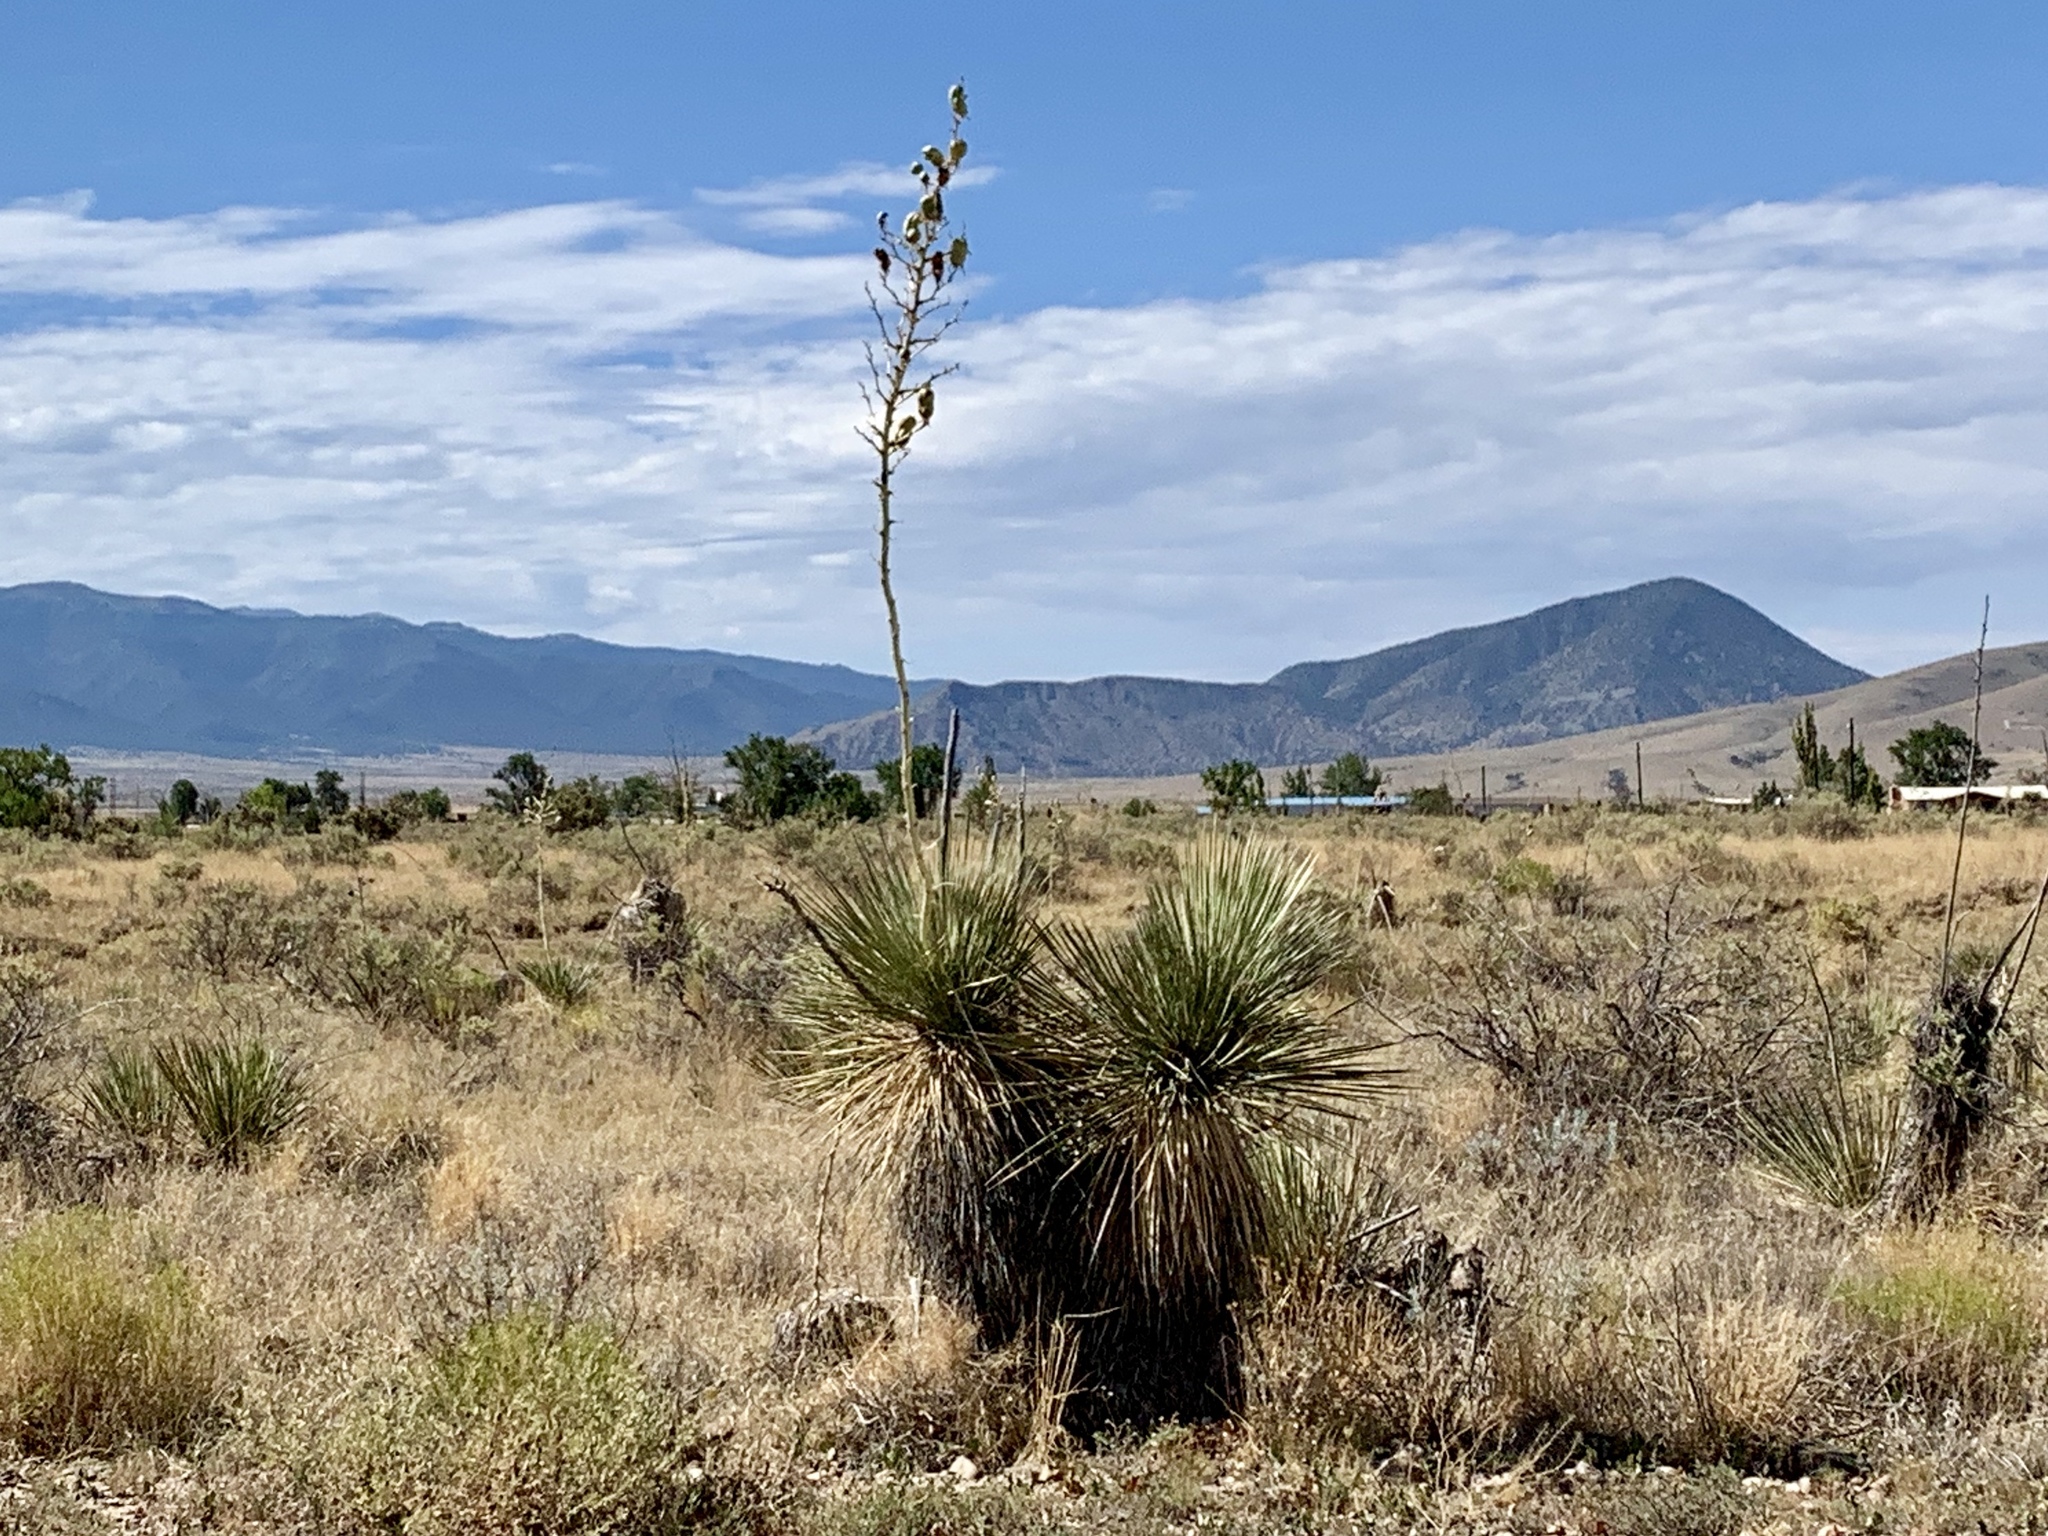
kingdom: Plantae
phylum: Tracheophyta
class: Liliopsida
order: Asparagales
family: Asparagaceae
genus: Yucca
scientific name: Yucca elata
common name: Palmella
